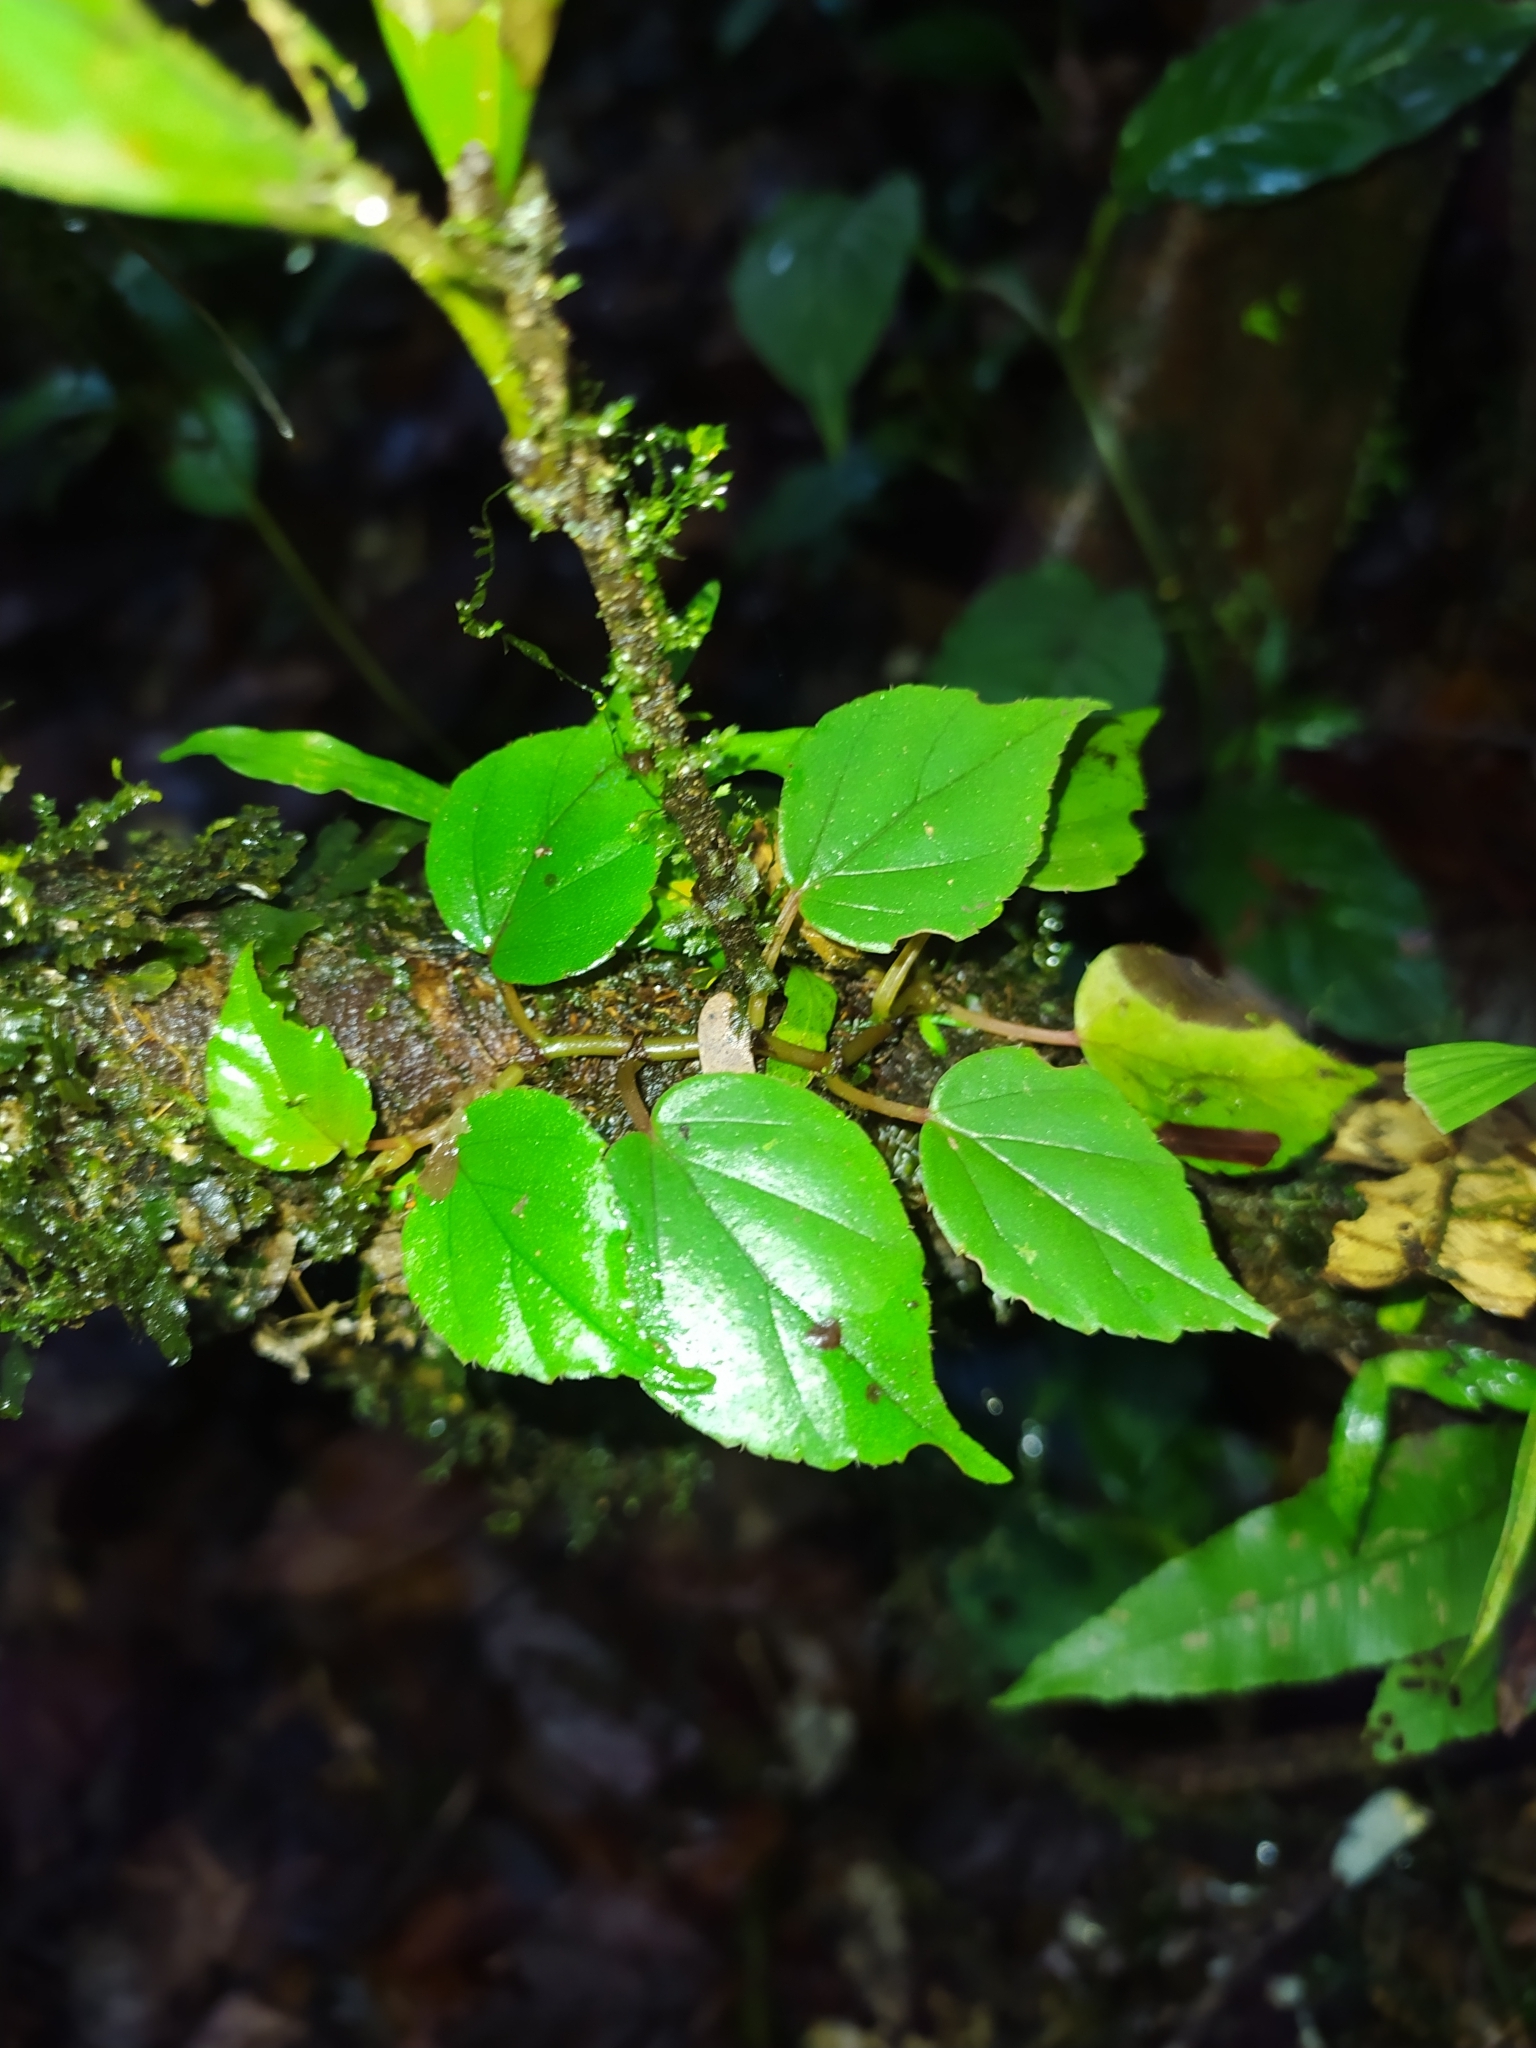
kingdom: Plantae
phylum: Tracheophyta
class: Magnoliopsida
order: Cucurbitales
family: Begoniaceae
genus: Begonia
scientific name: Begonia glabra
